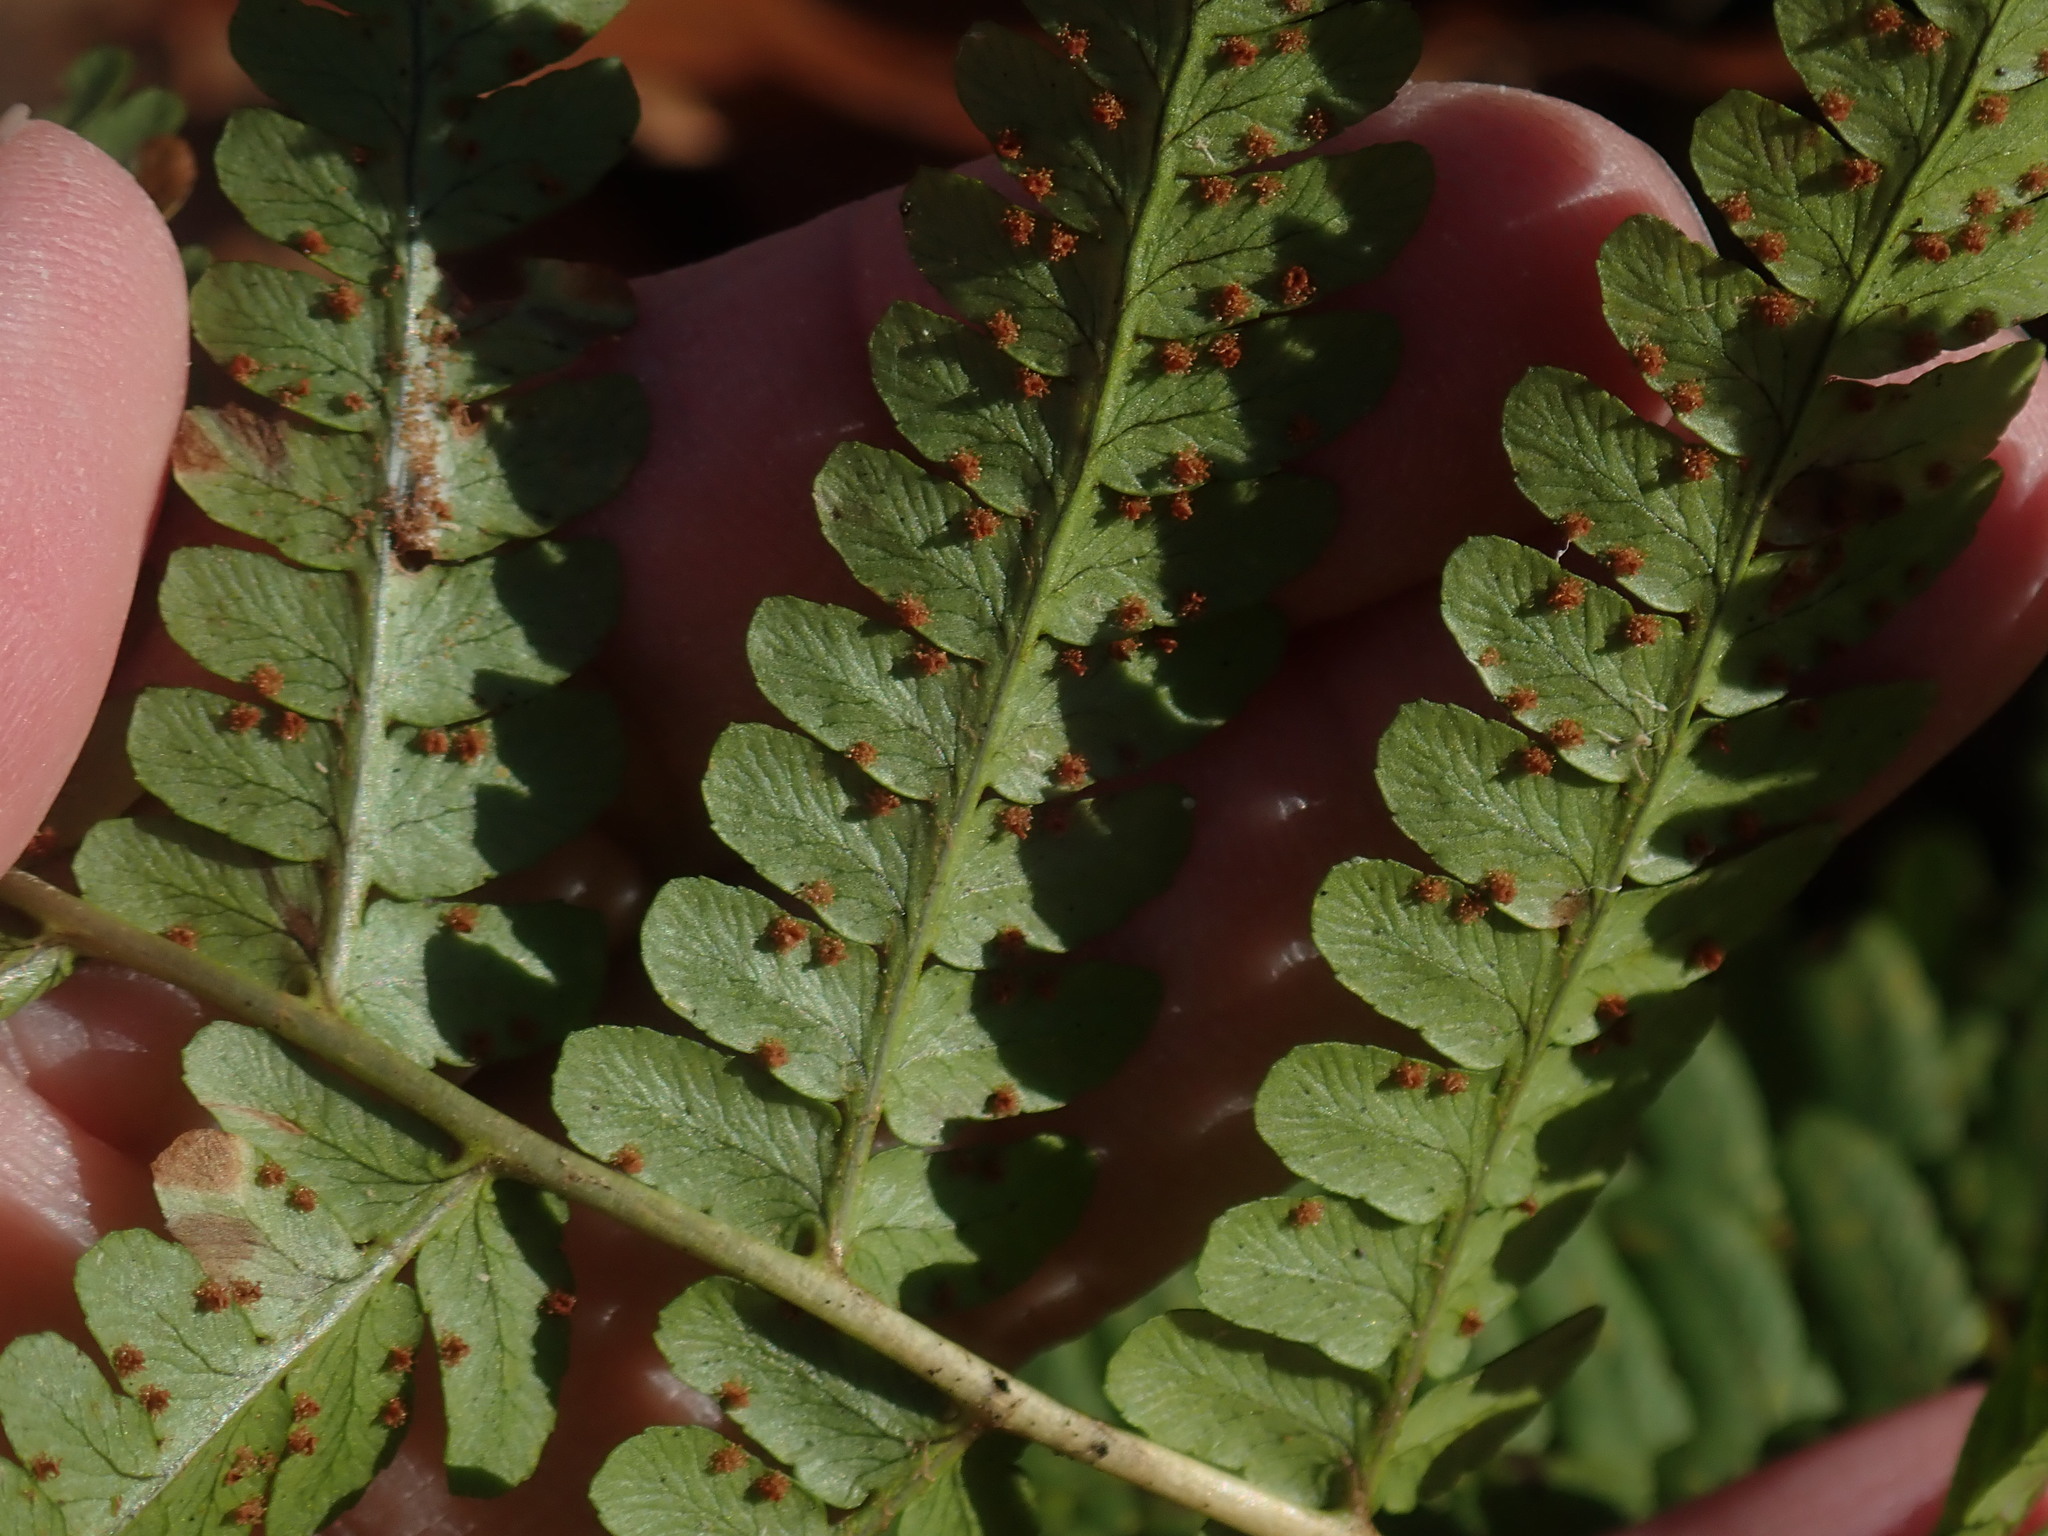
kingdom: Plantae
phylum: Tracheophyta
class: Polypodiopsida
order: Polypodiales
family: Dryopteridaceae
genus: Dryopteris
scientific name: Dryopteris marginalis
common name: Marginal wood fern
